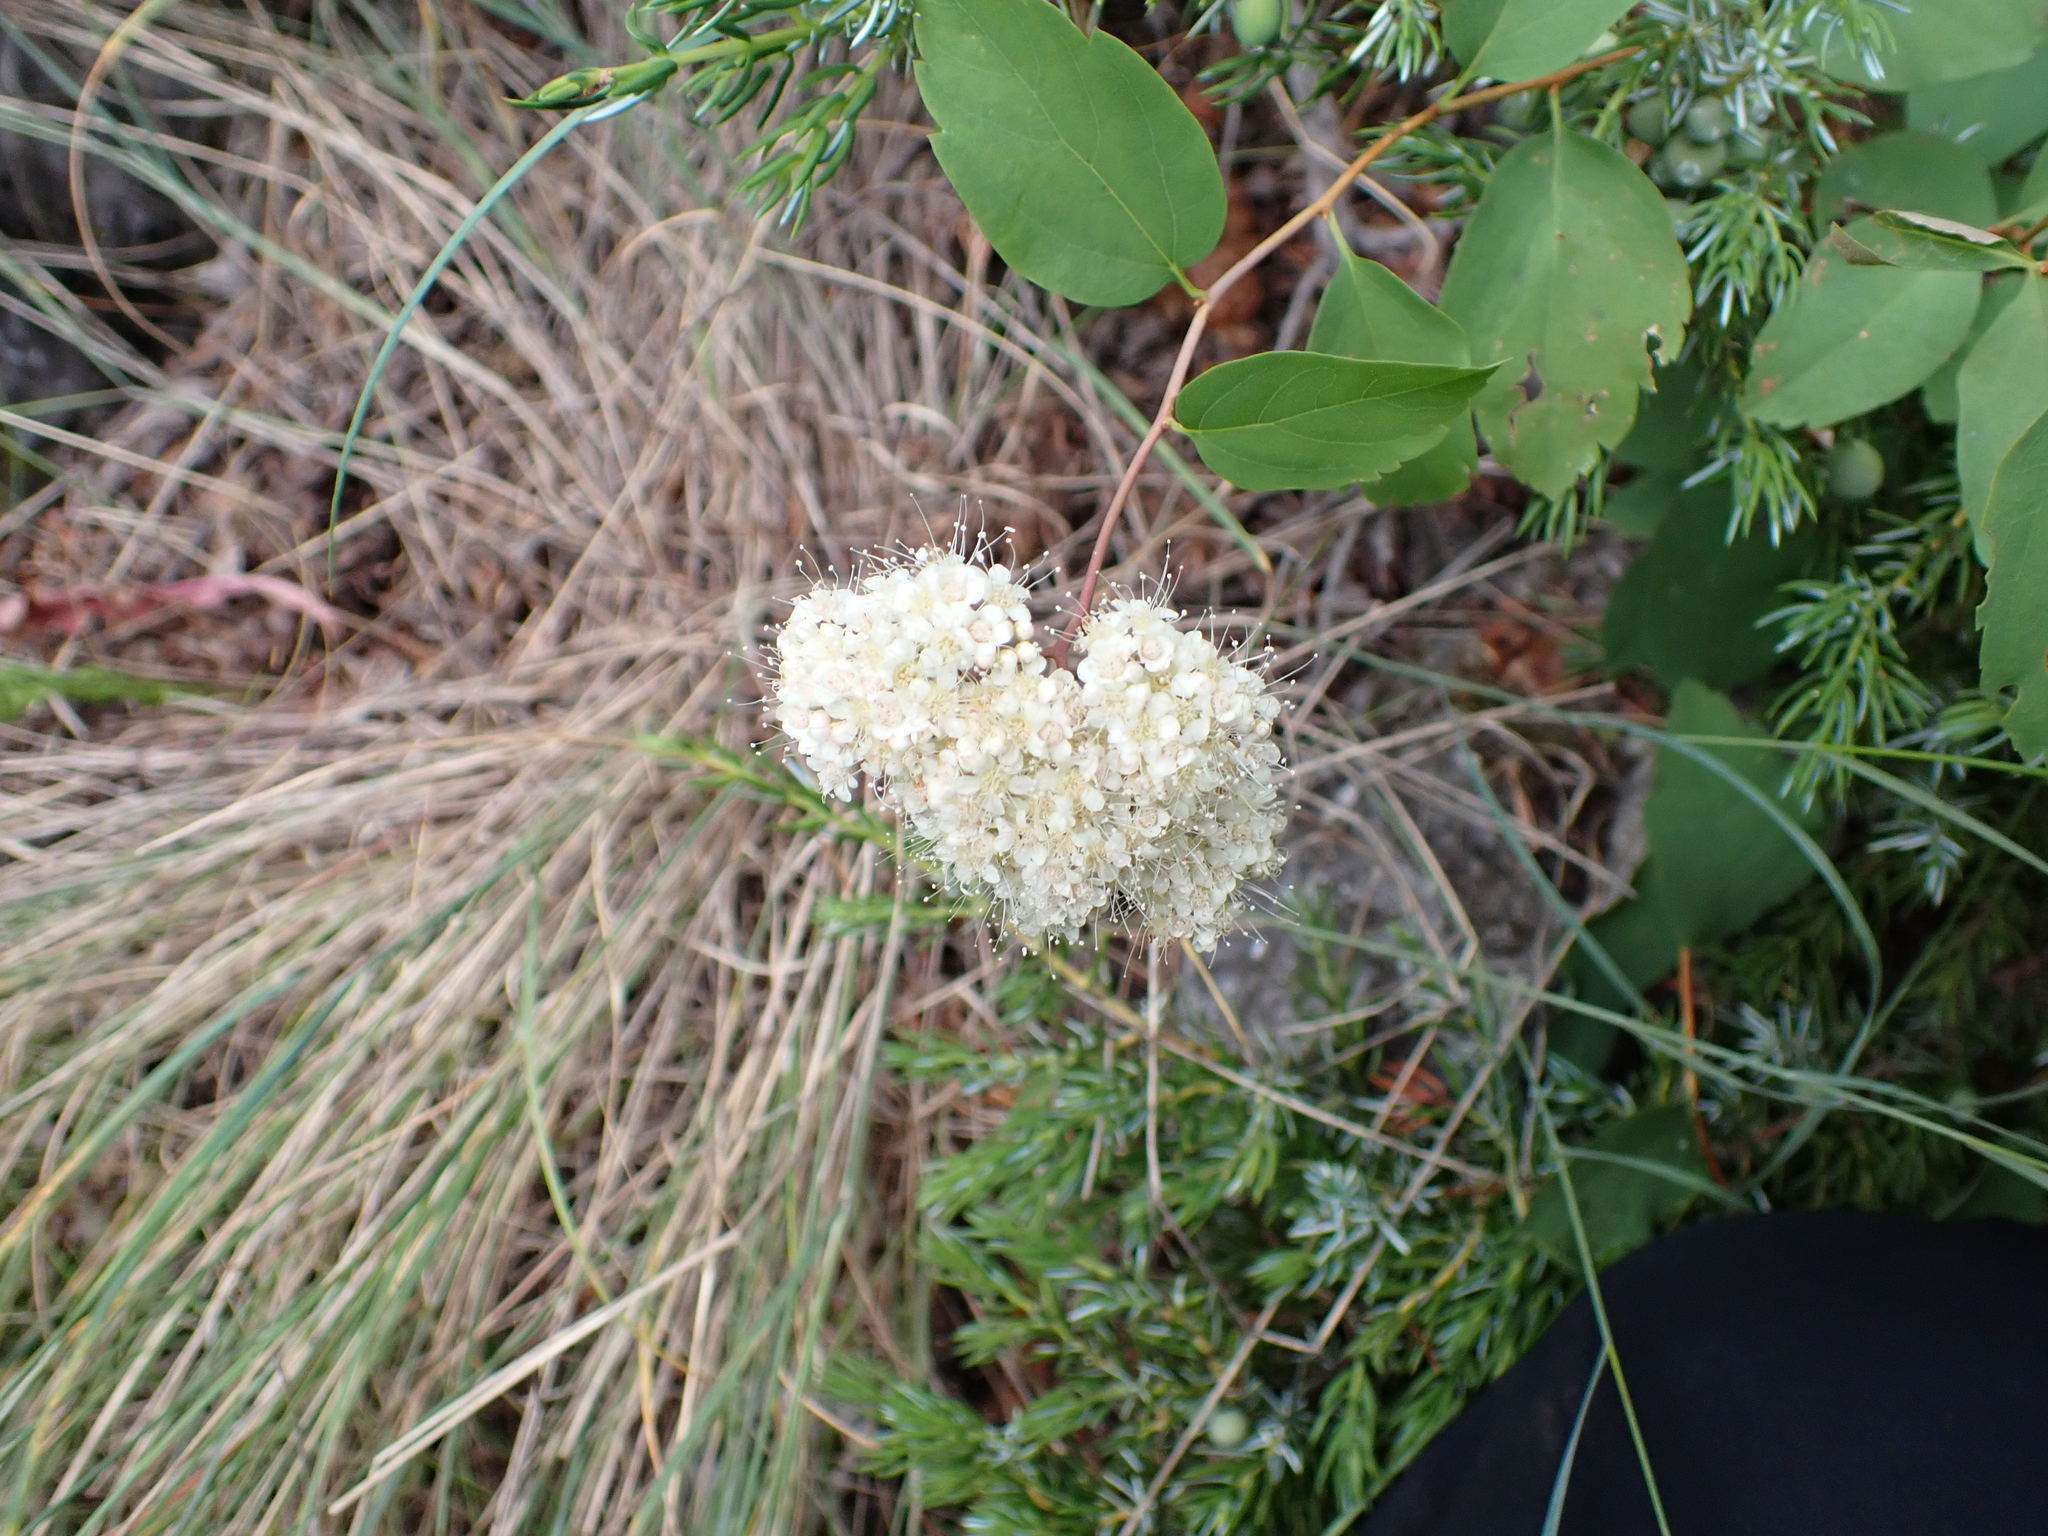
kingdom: Plantae
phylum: Tracheophyta
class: Magnoliopsida
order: Rosales
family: Rosaceae
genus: Spiraea
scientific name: Spiraea lucida
